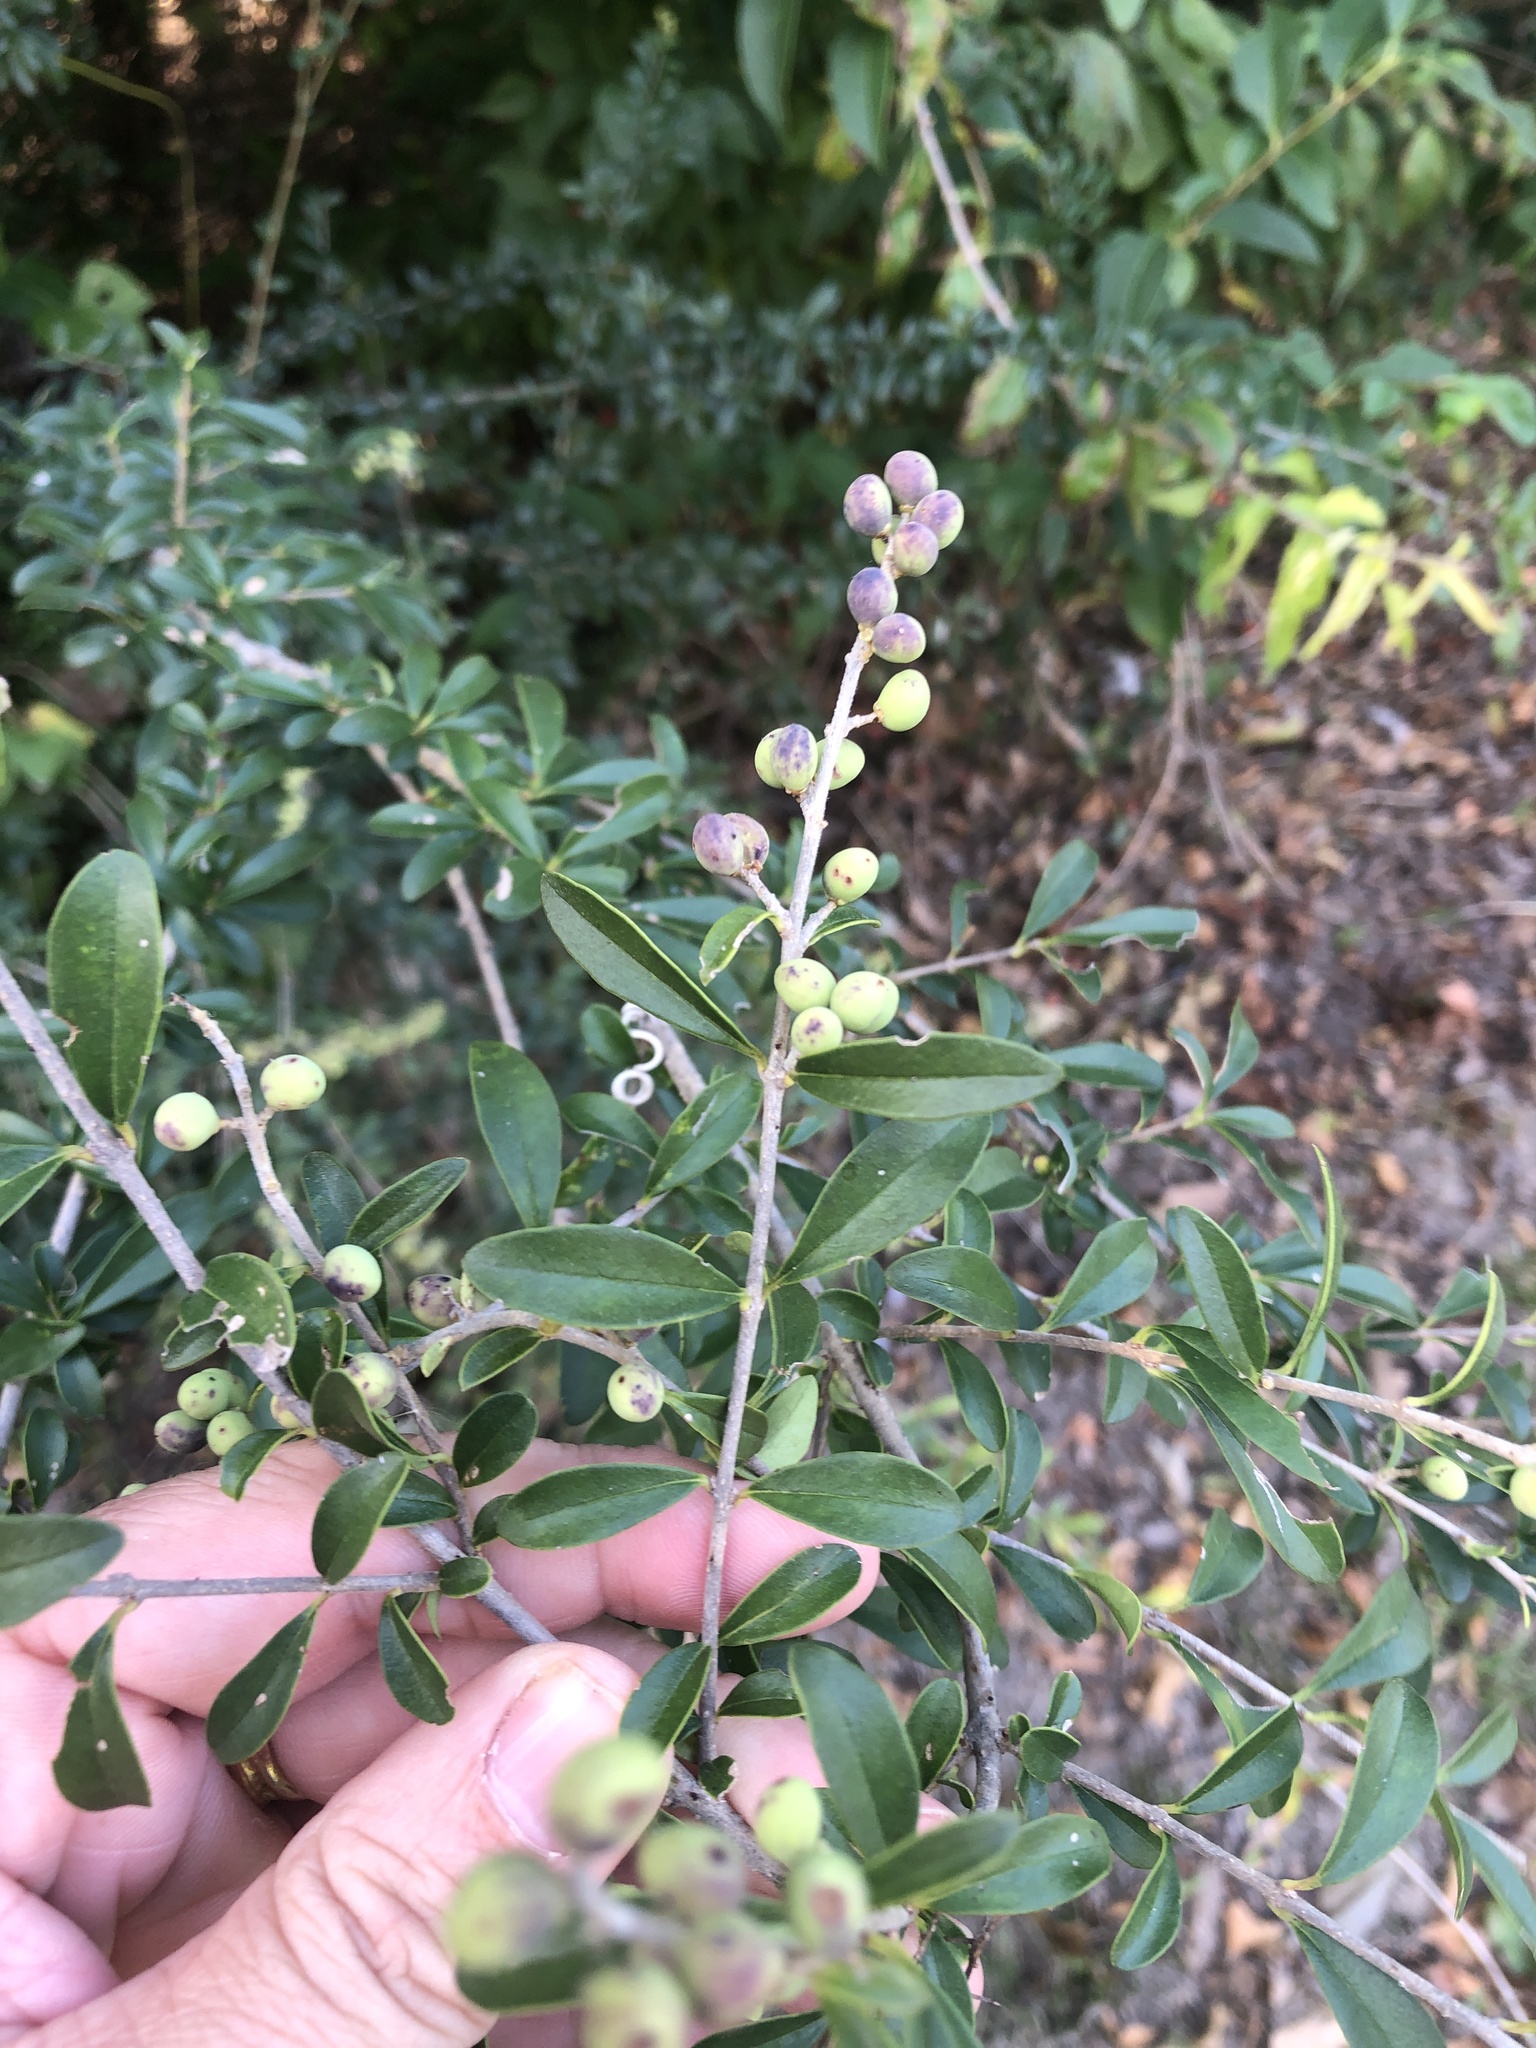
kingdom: Plantae
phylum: Tracheophyta
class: Magnoliopsida
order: Lamiales
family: Oleaceae
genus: Ligustrum
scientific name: Ligustrum quihoui
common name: Waxyleaf privet
